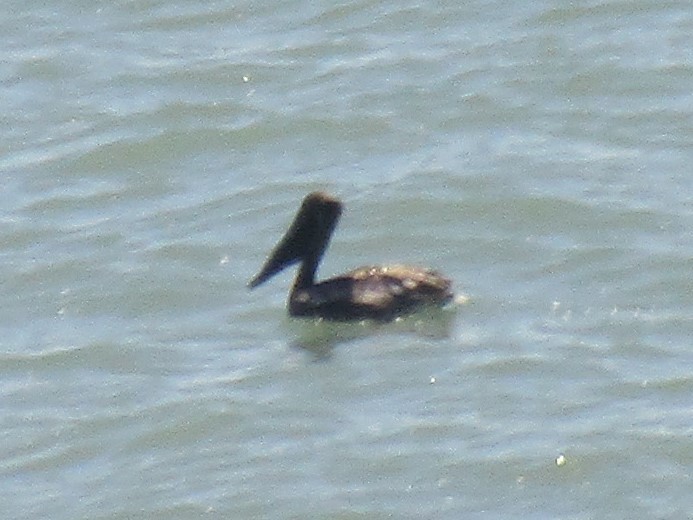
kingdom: Animalia
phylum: Chordata
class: Aves
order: Pelecaniformes
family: Pelecanidae
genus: Pelecanus
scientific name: Pelecanus occidentalis
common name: Brown pelican
